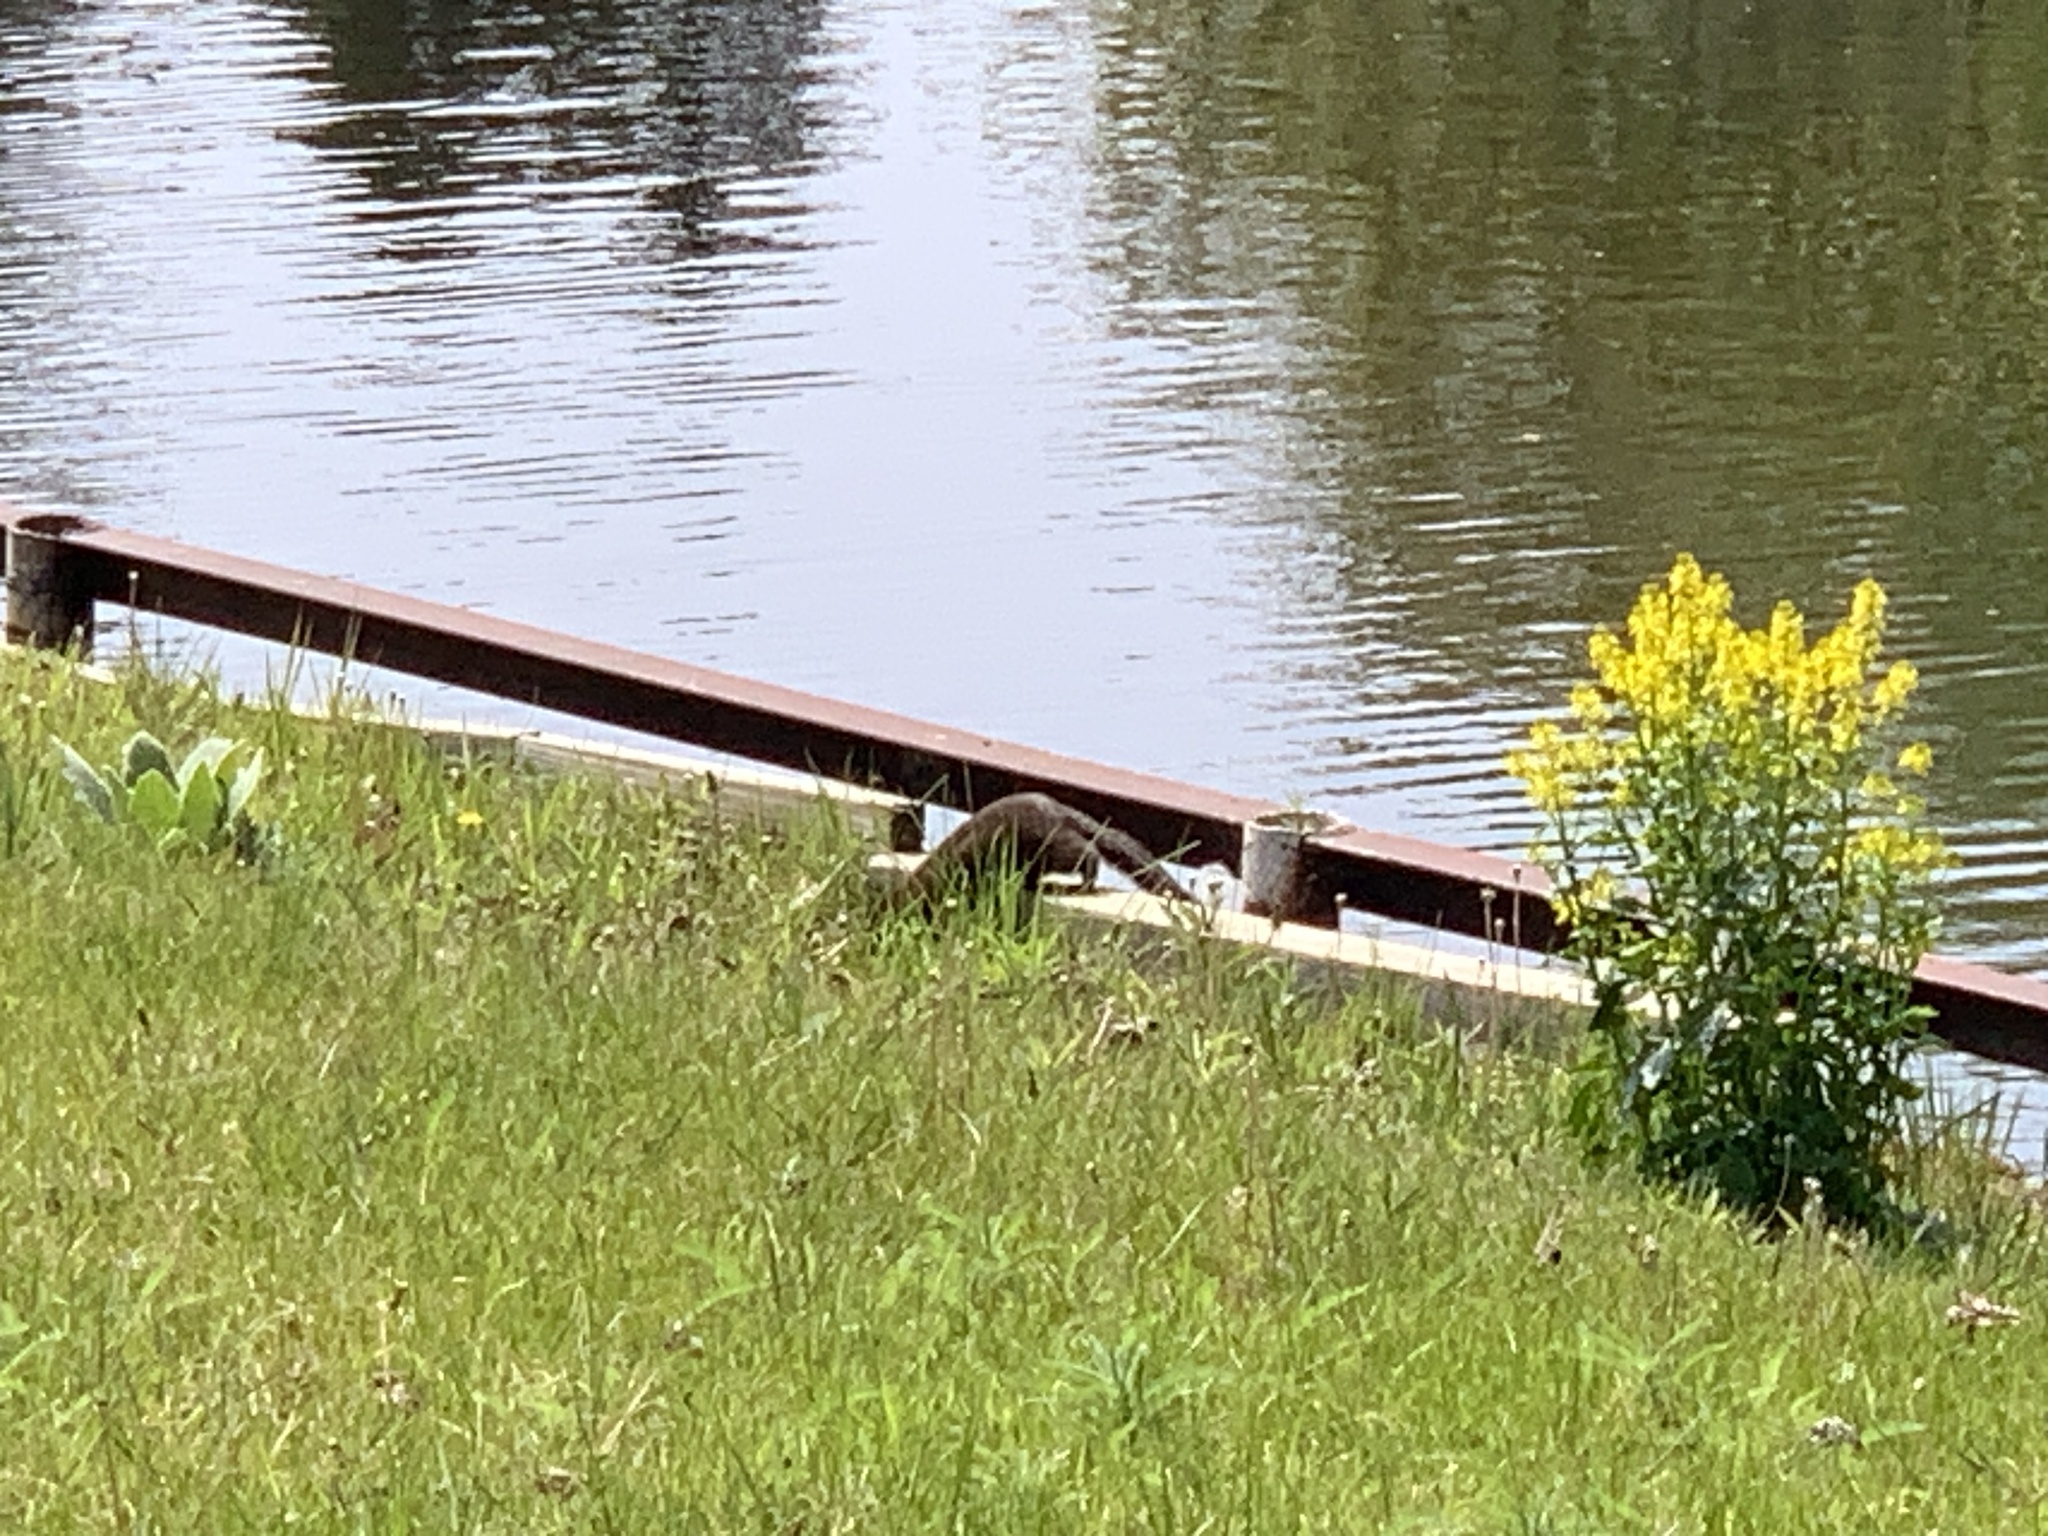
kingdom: Animalia
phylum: Chordata
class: Mammalia
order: Carnivora
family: Mustelidae
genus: Mustela
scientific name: Mustela
